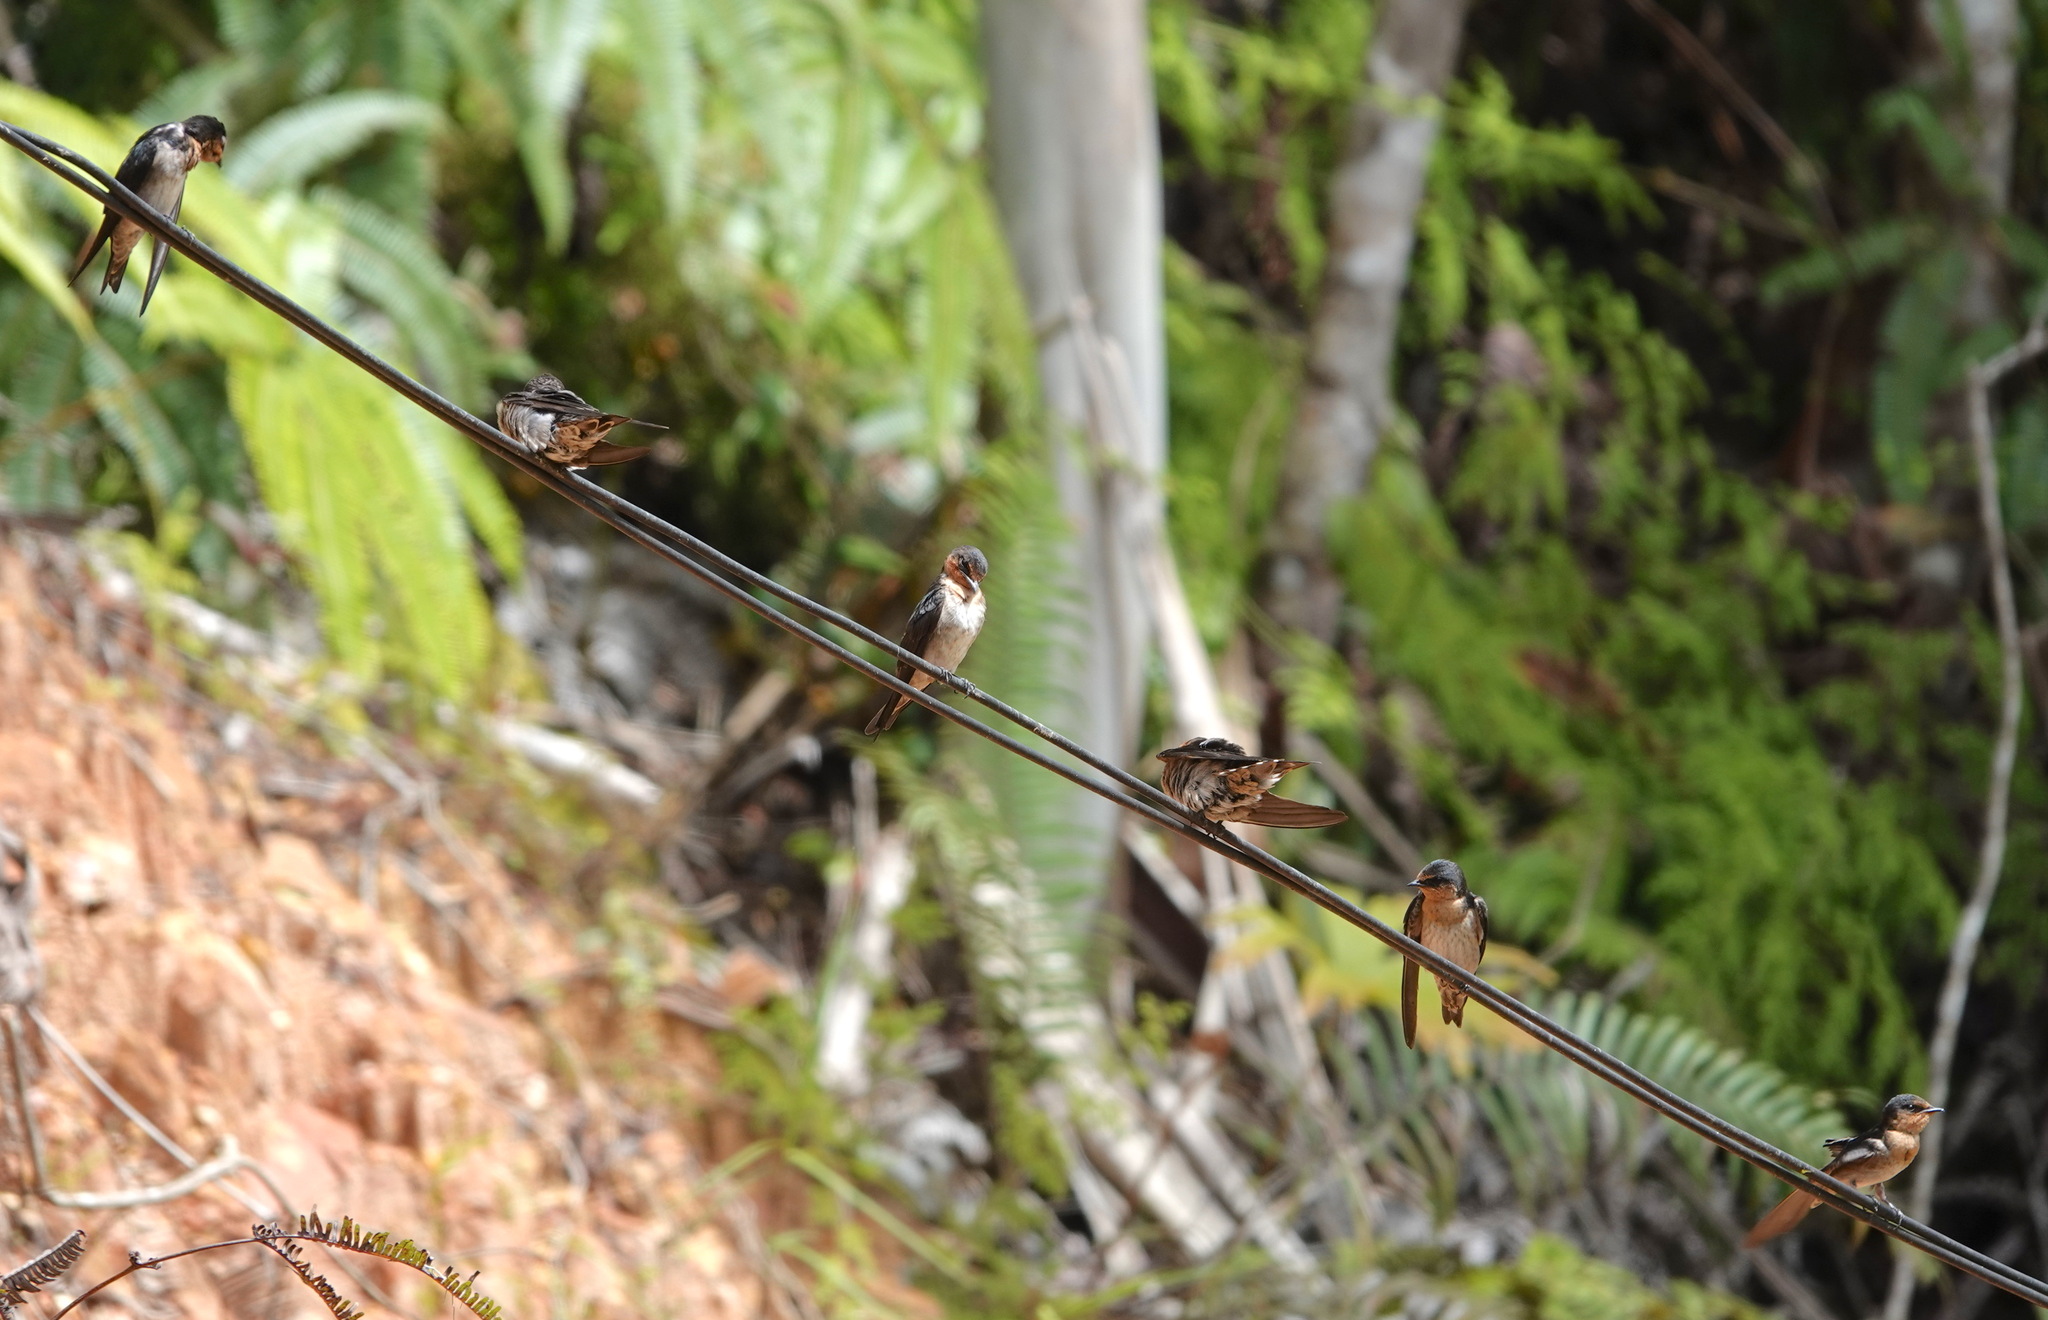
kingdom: Animalia
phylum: Chordata
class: Aves
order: Passeriformes
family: Hirundinidae
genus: Hirundo
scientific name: Hirundo tahitica
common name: Pacific swallow
